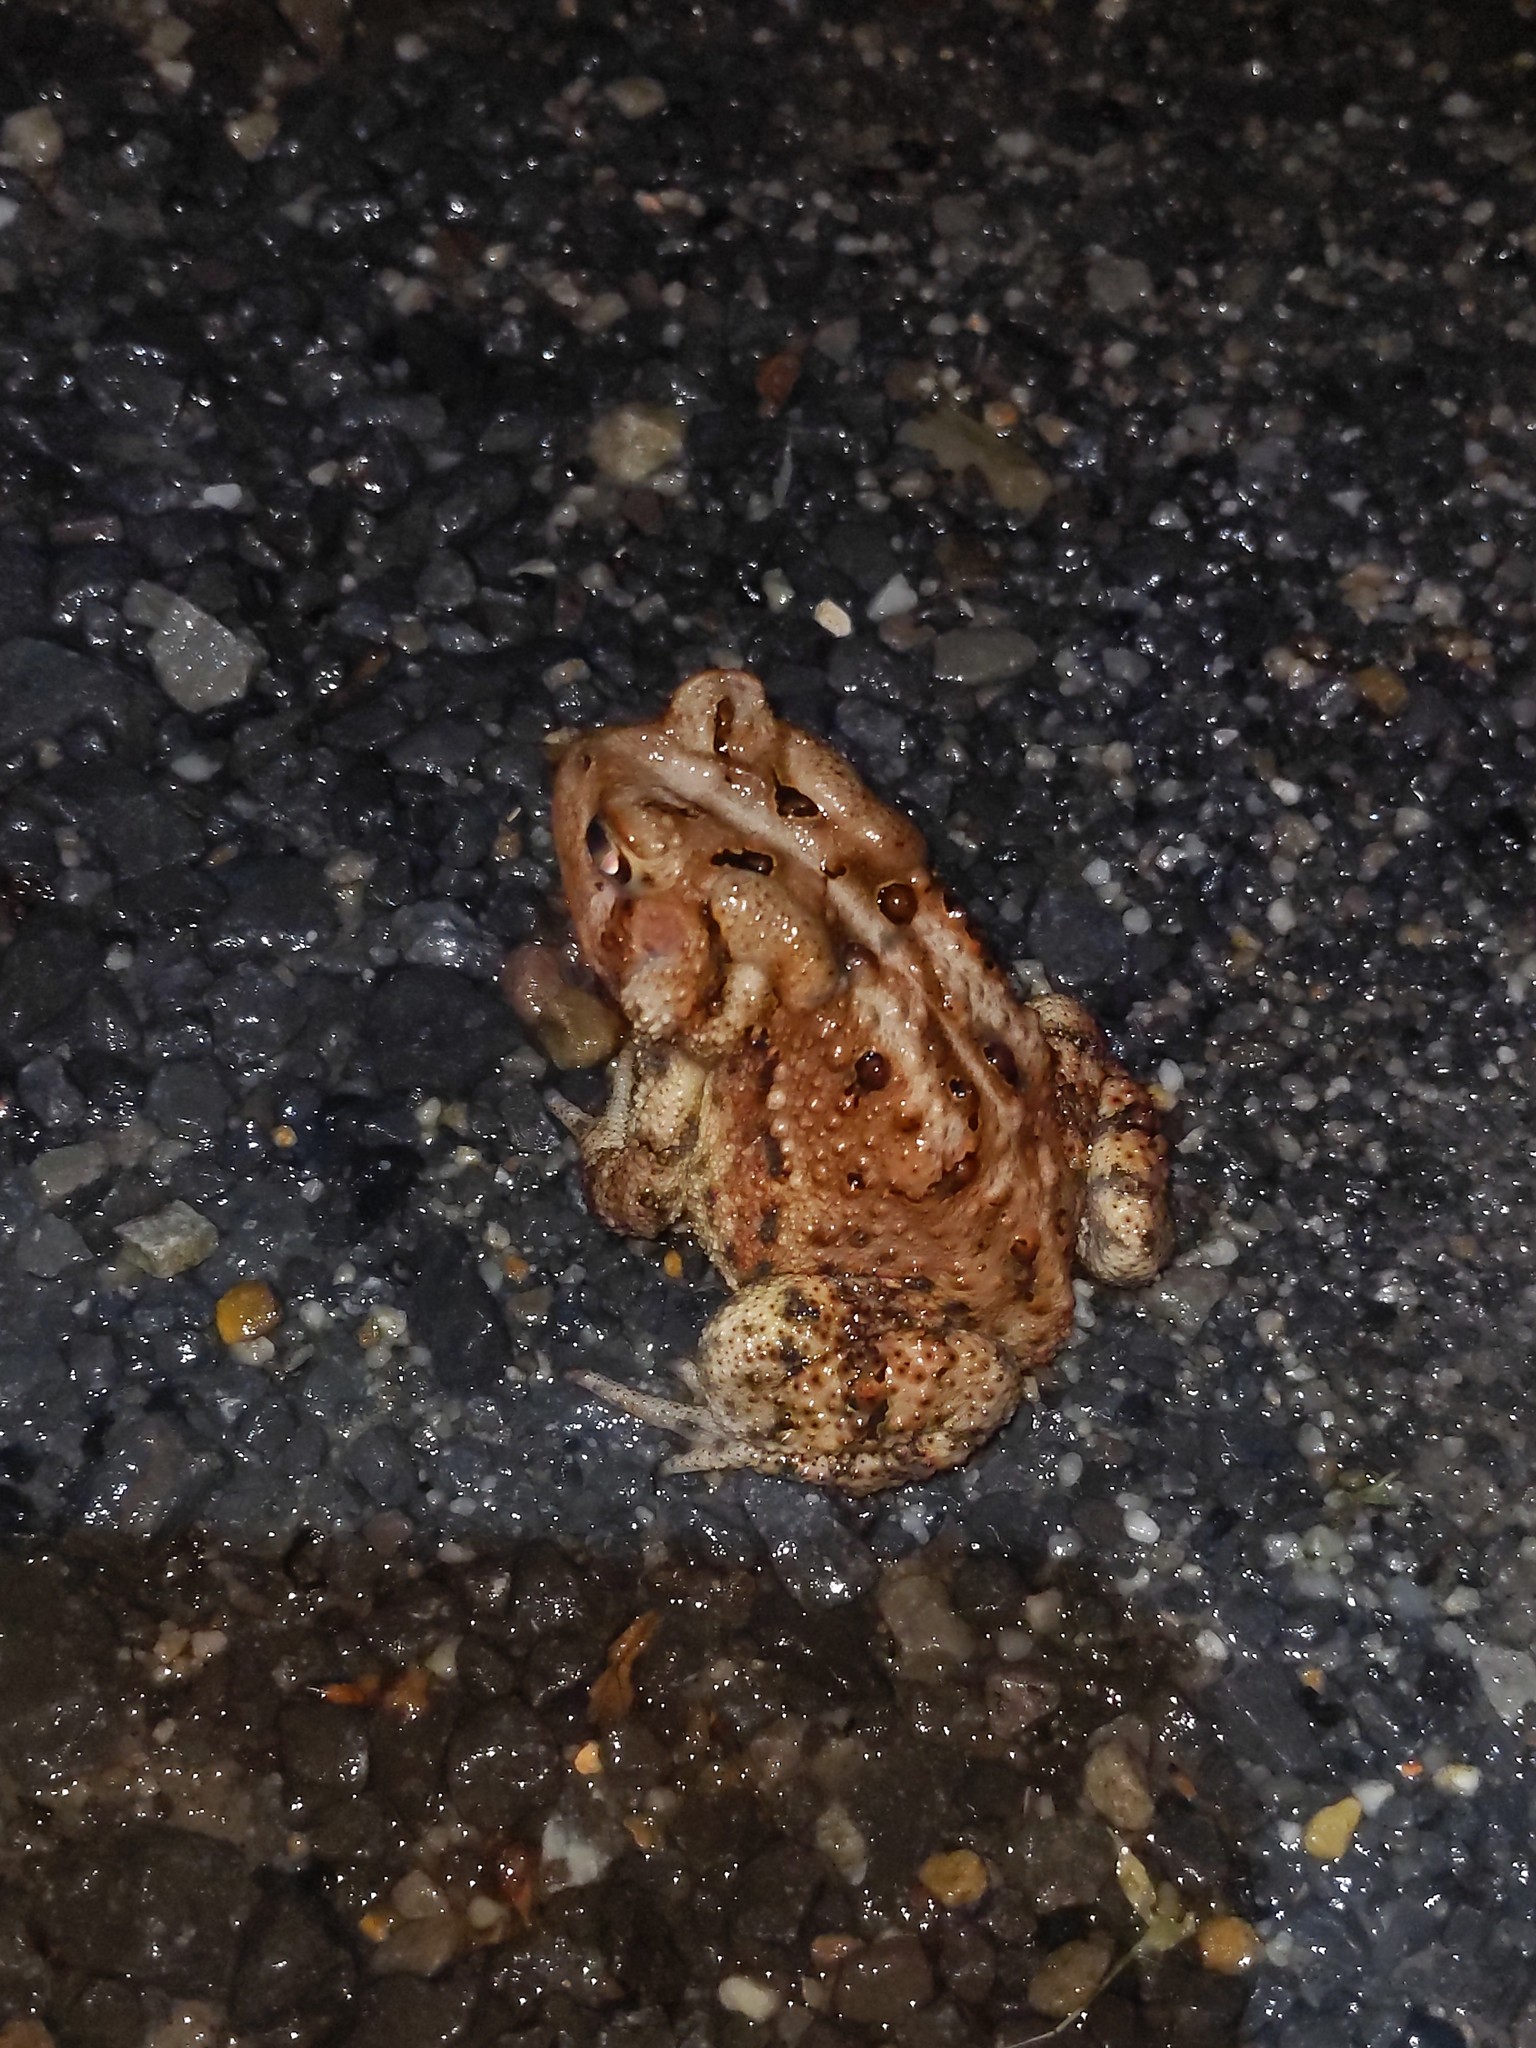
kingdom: Animalia
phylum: Chordata
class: Amphibia
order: Anura
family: Bufonidae
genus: Anaxyrus
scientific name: Anaxyrus americanus
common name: American toad
